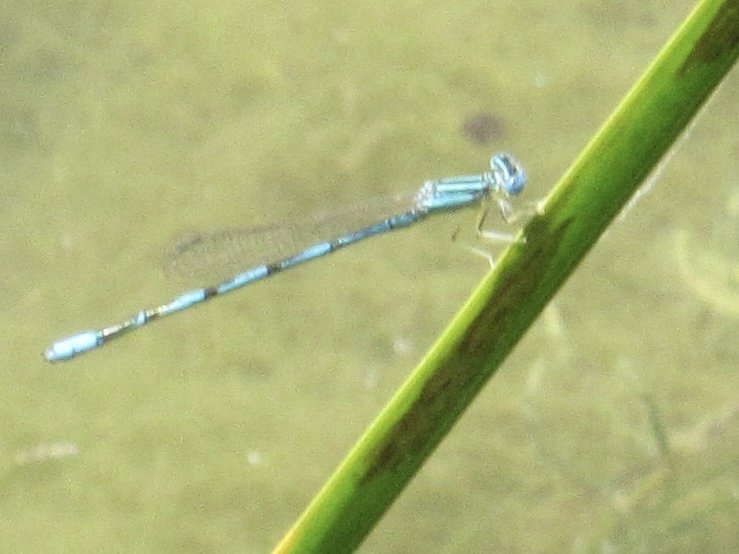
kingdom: Animalia
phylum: Arthropoda
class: Insecta
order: Odonata
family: Coenagrionidae
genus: Enallagma
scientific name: Enallagma basidens
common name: Double-striped bluet
